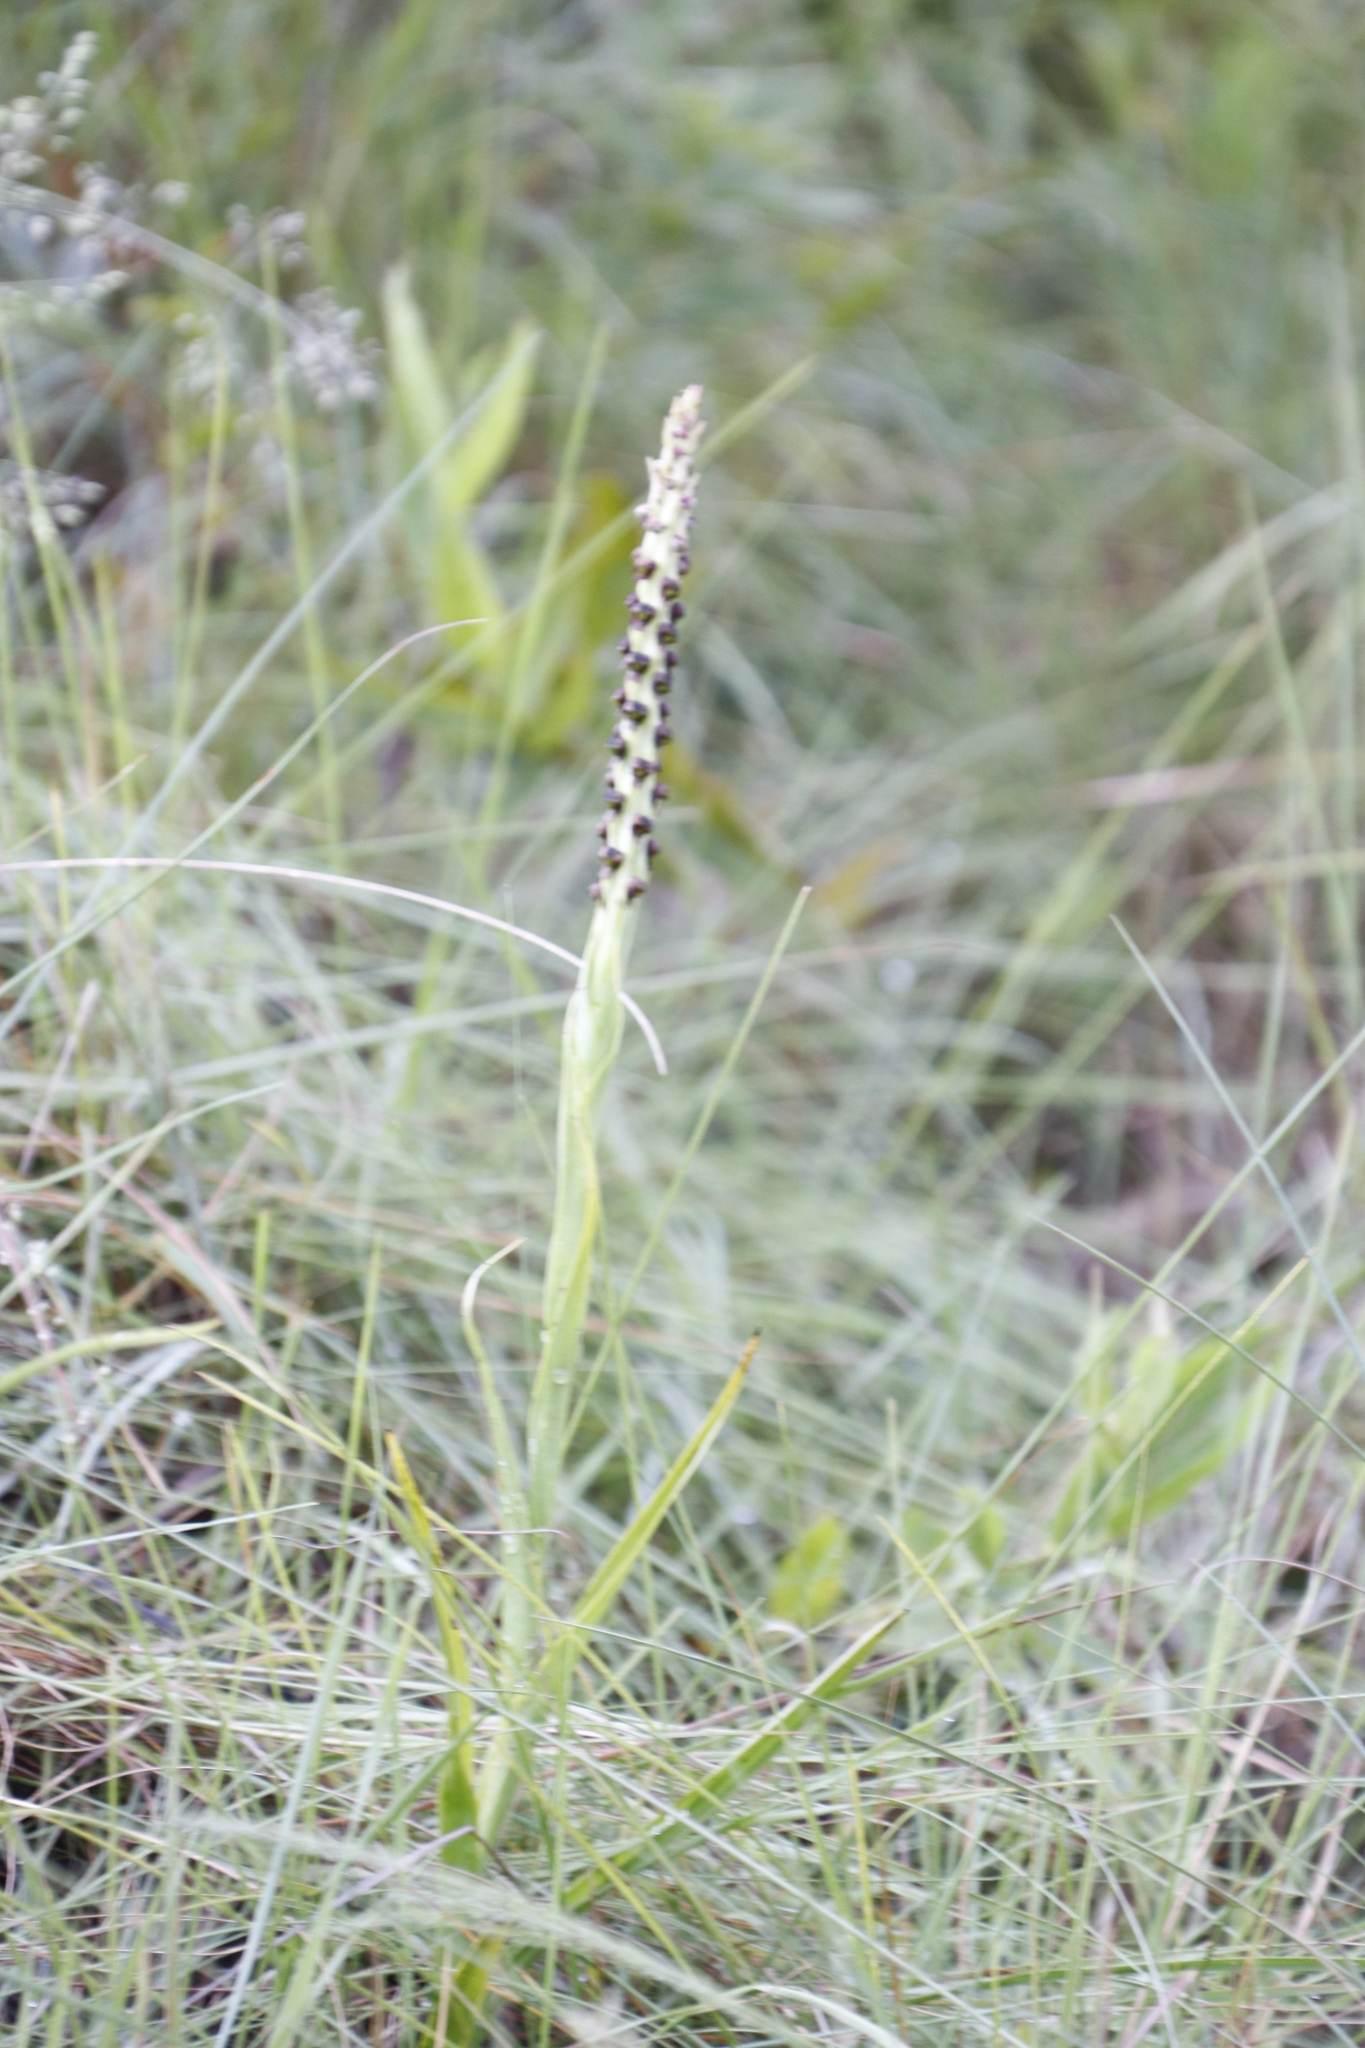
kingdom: Plantae
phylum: Tracheophyta
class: Liliopsida
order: Asparagales
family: Orchidaceae
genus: Corycium
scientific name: Corycium nigrescens
